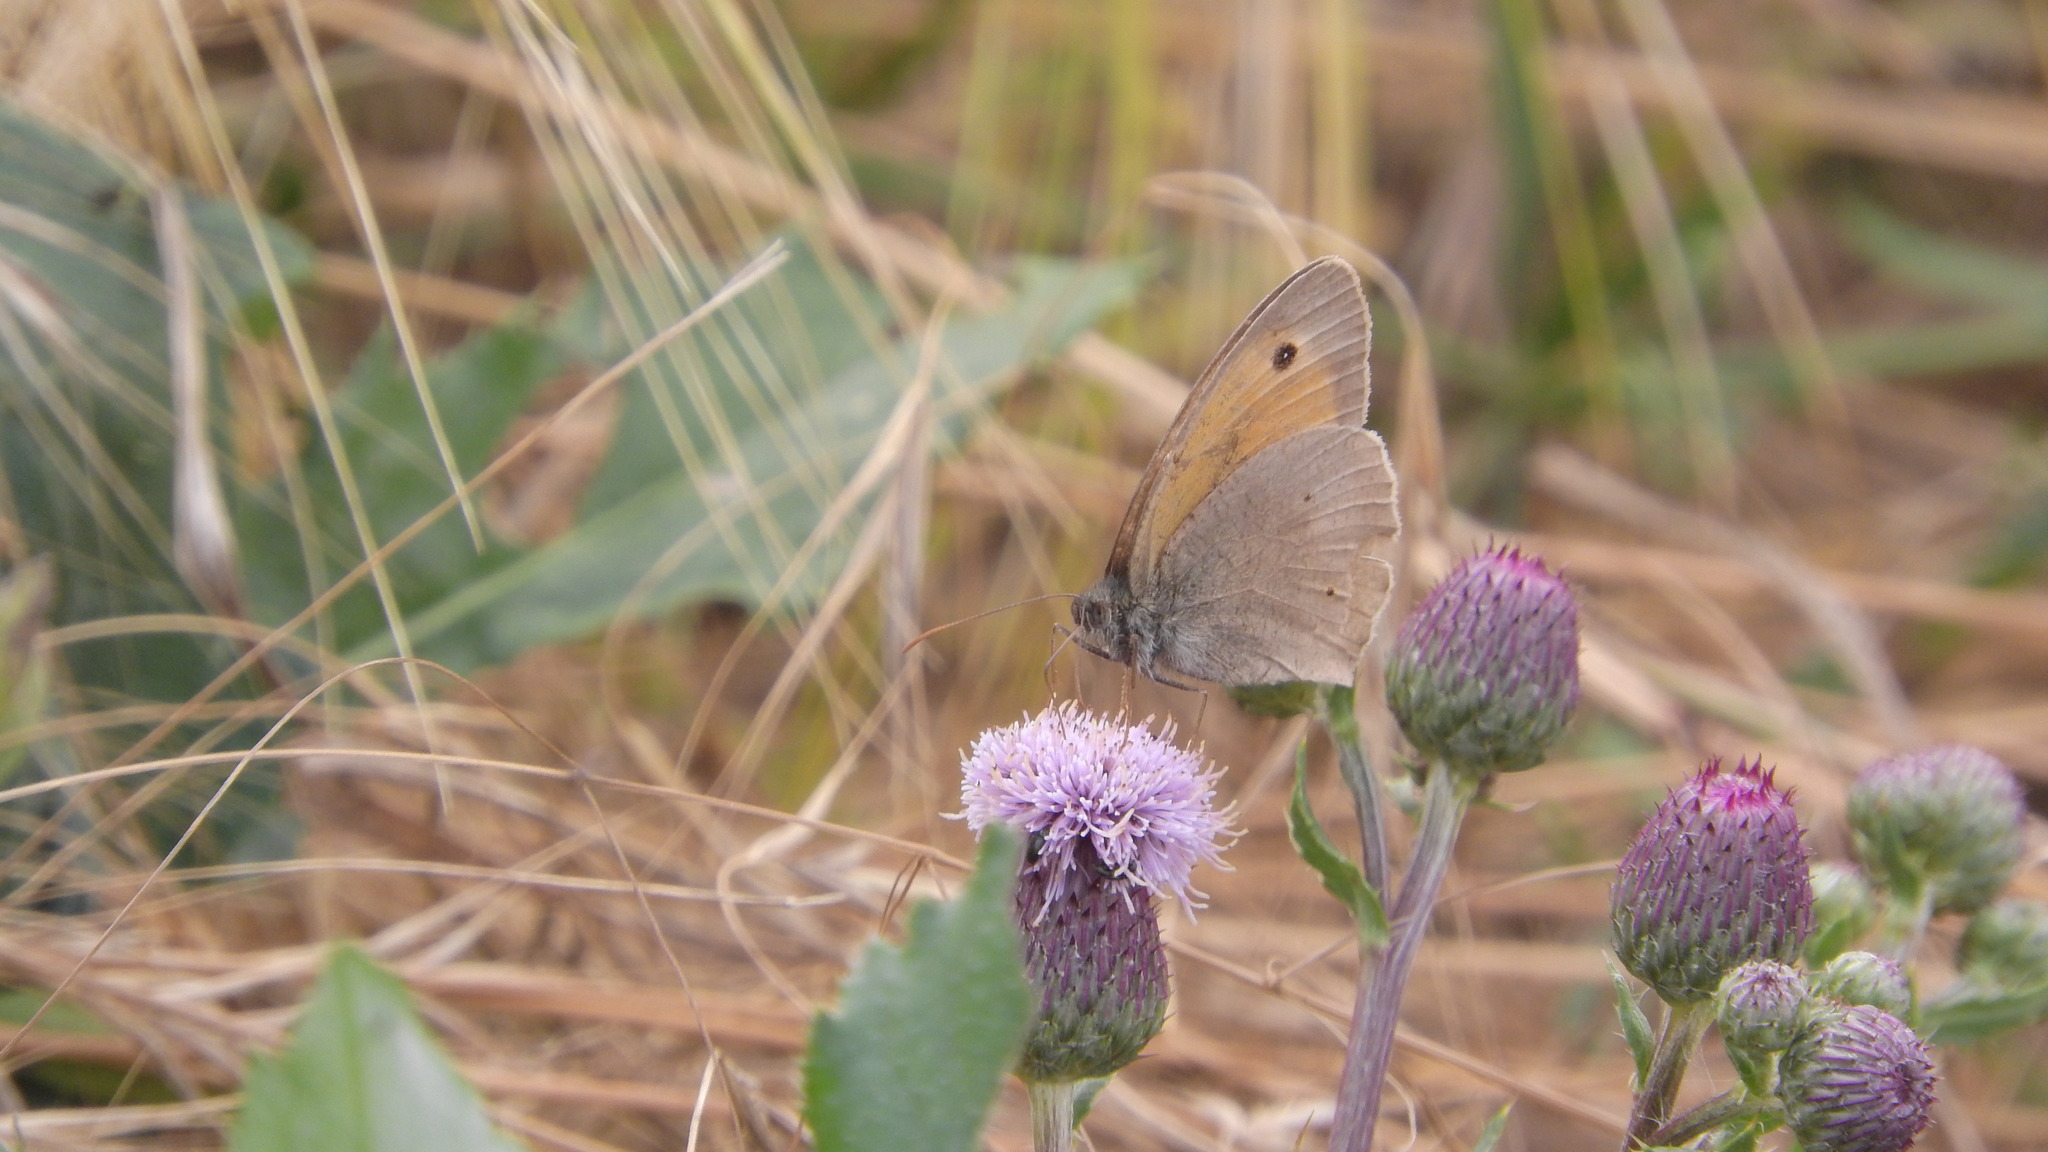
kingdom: Animalia
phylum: Arthropoda
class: Insecta
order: Lepidoptera
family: Nymphalidae
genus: Maniola
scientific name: Maniola jurtina
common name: Meadow brown
